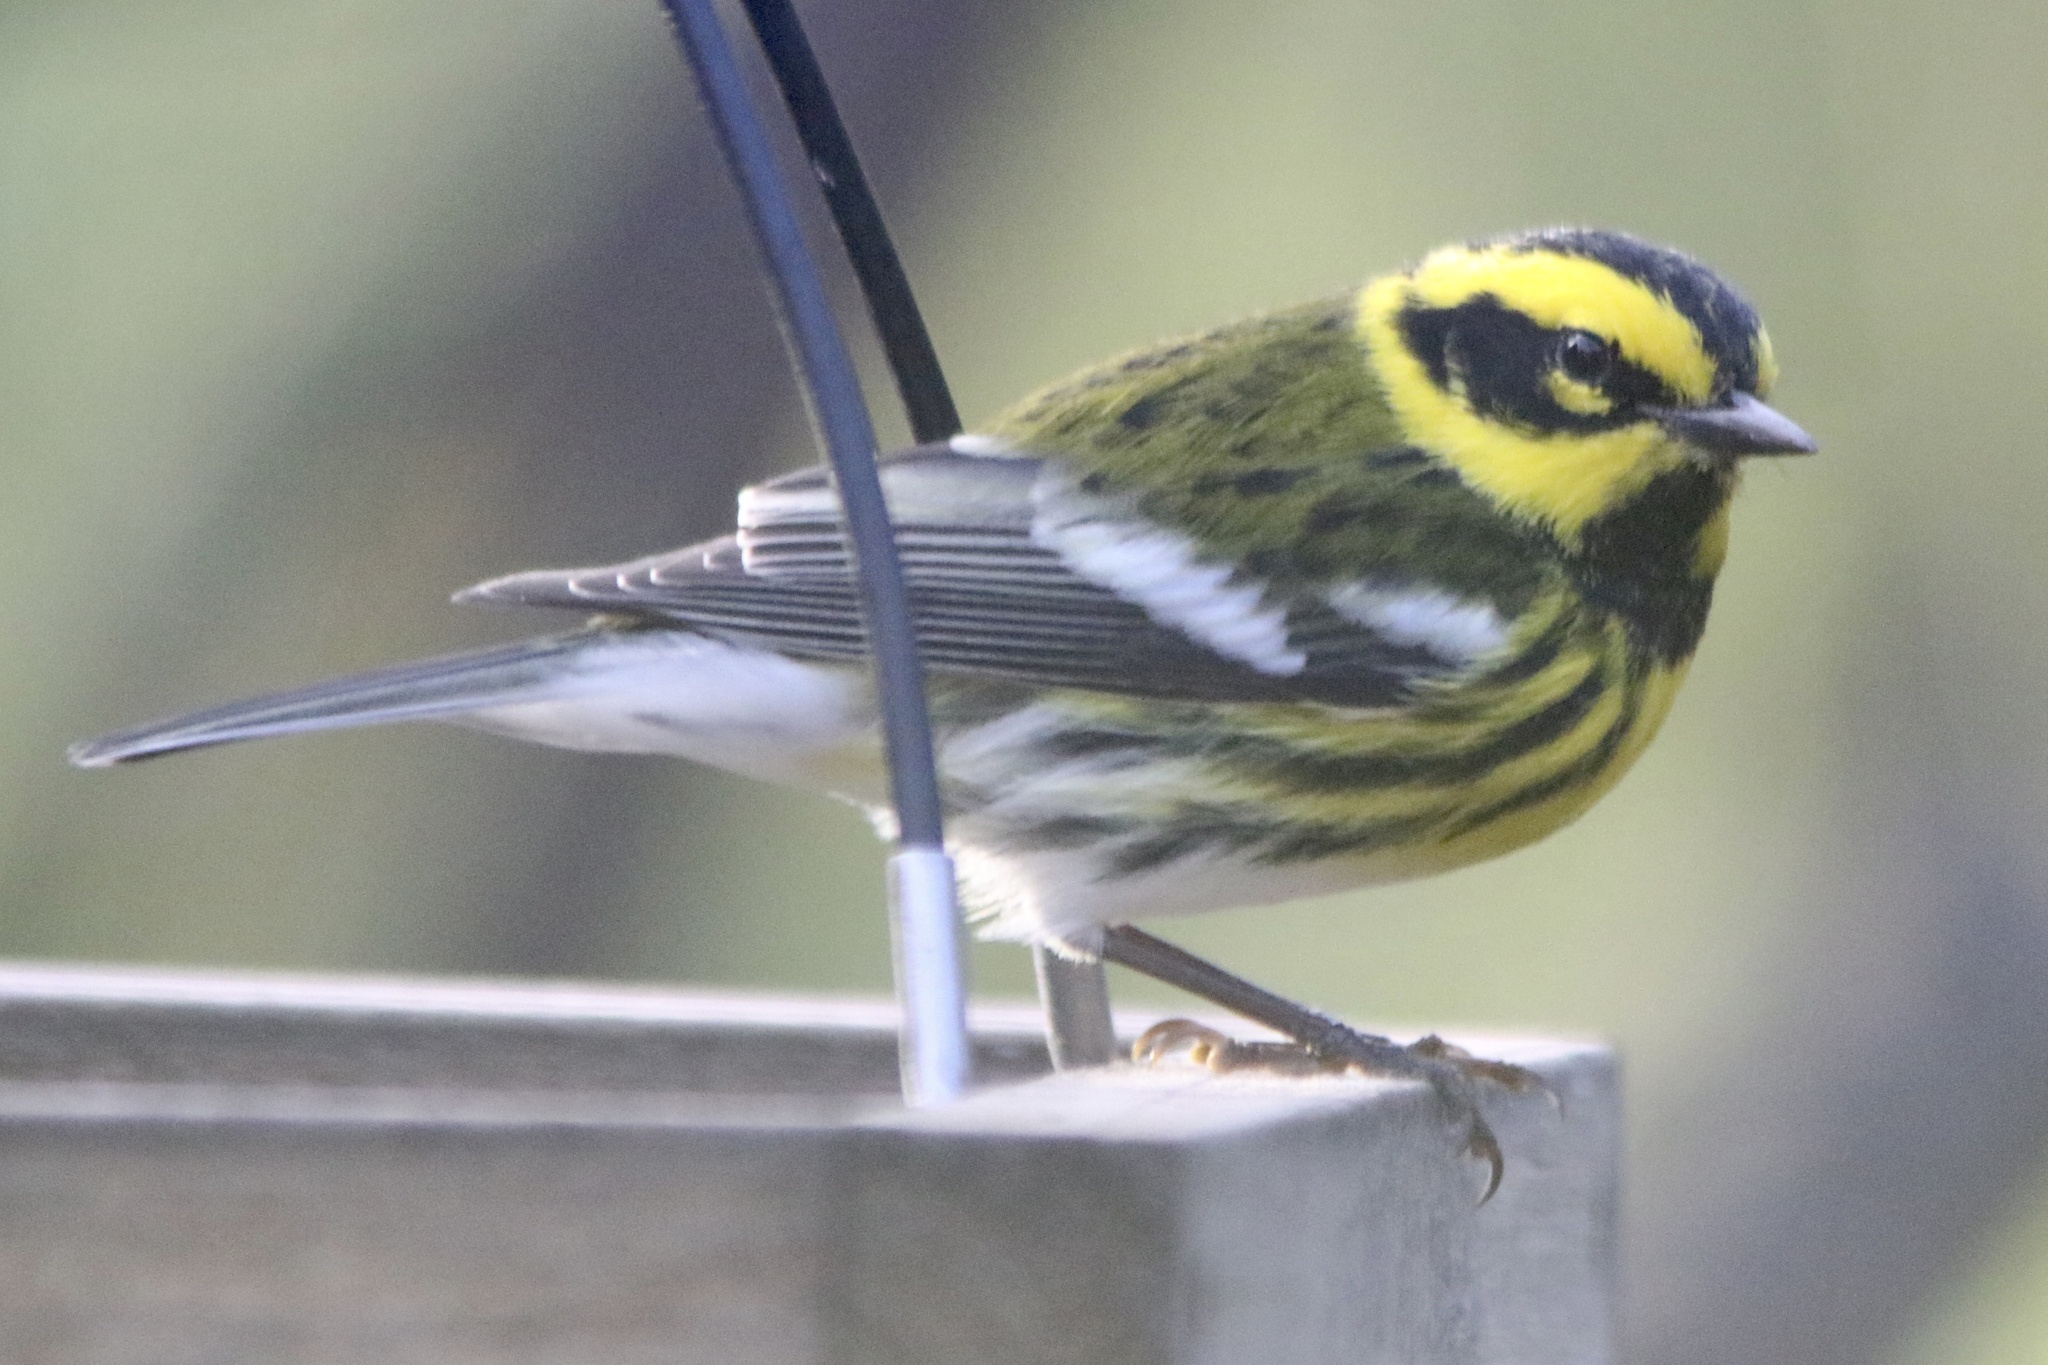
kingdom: Animalia
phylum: Chordata
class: Aves
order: Passeriformes
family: Parulidae
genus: Setophaga
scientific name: Setophaga townsendi
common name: Townsend's warbler
